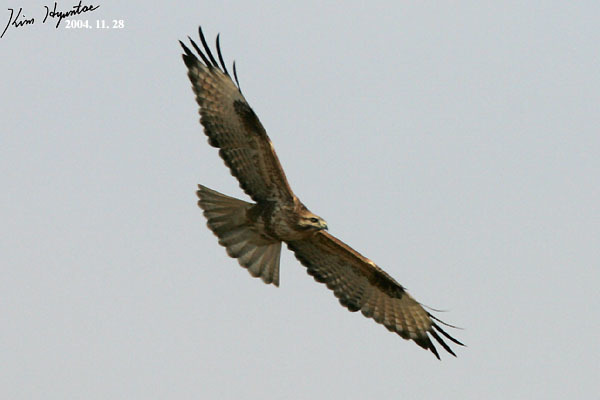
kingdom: Animalia
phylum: Chordata
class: Aves
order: Accipitriformes
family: Accipitridae
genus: Buteo
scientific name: Buteo japonicus
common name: Eastern buzzard
